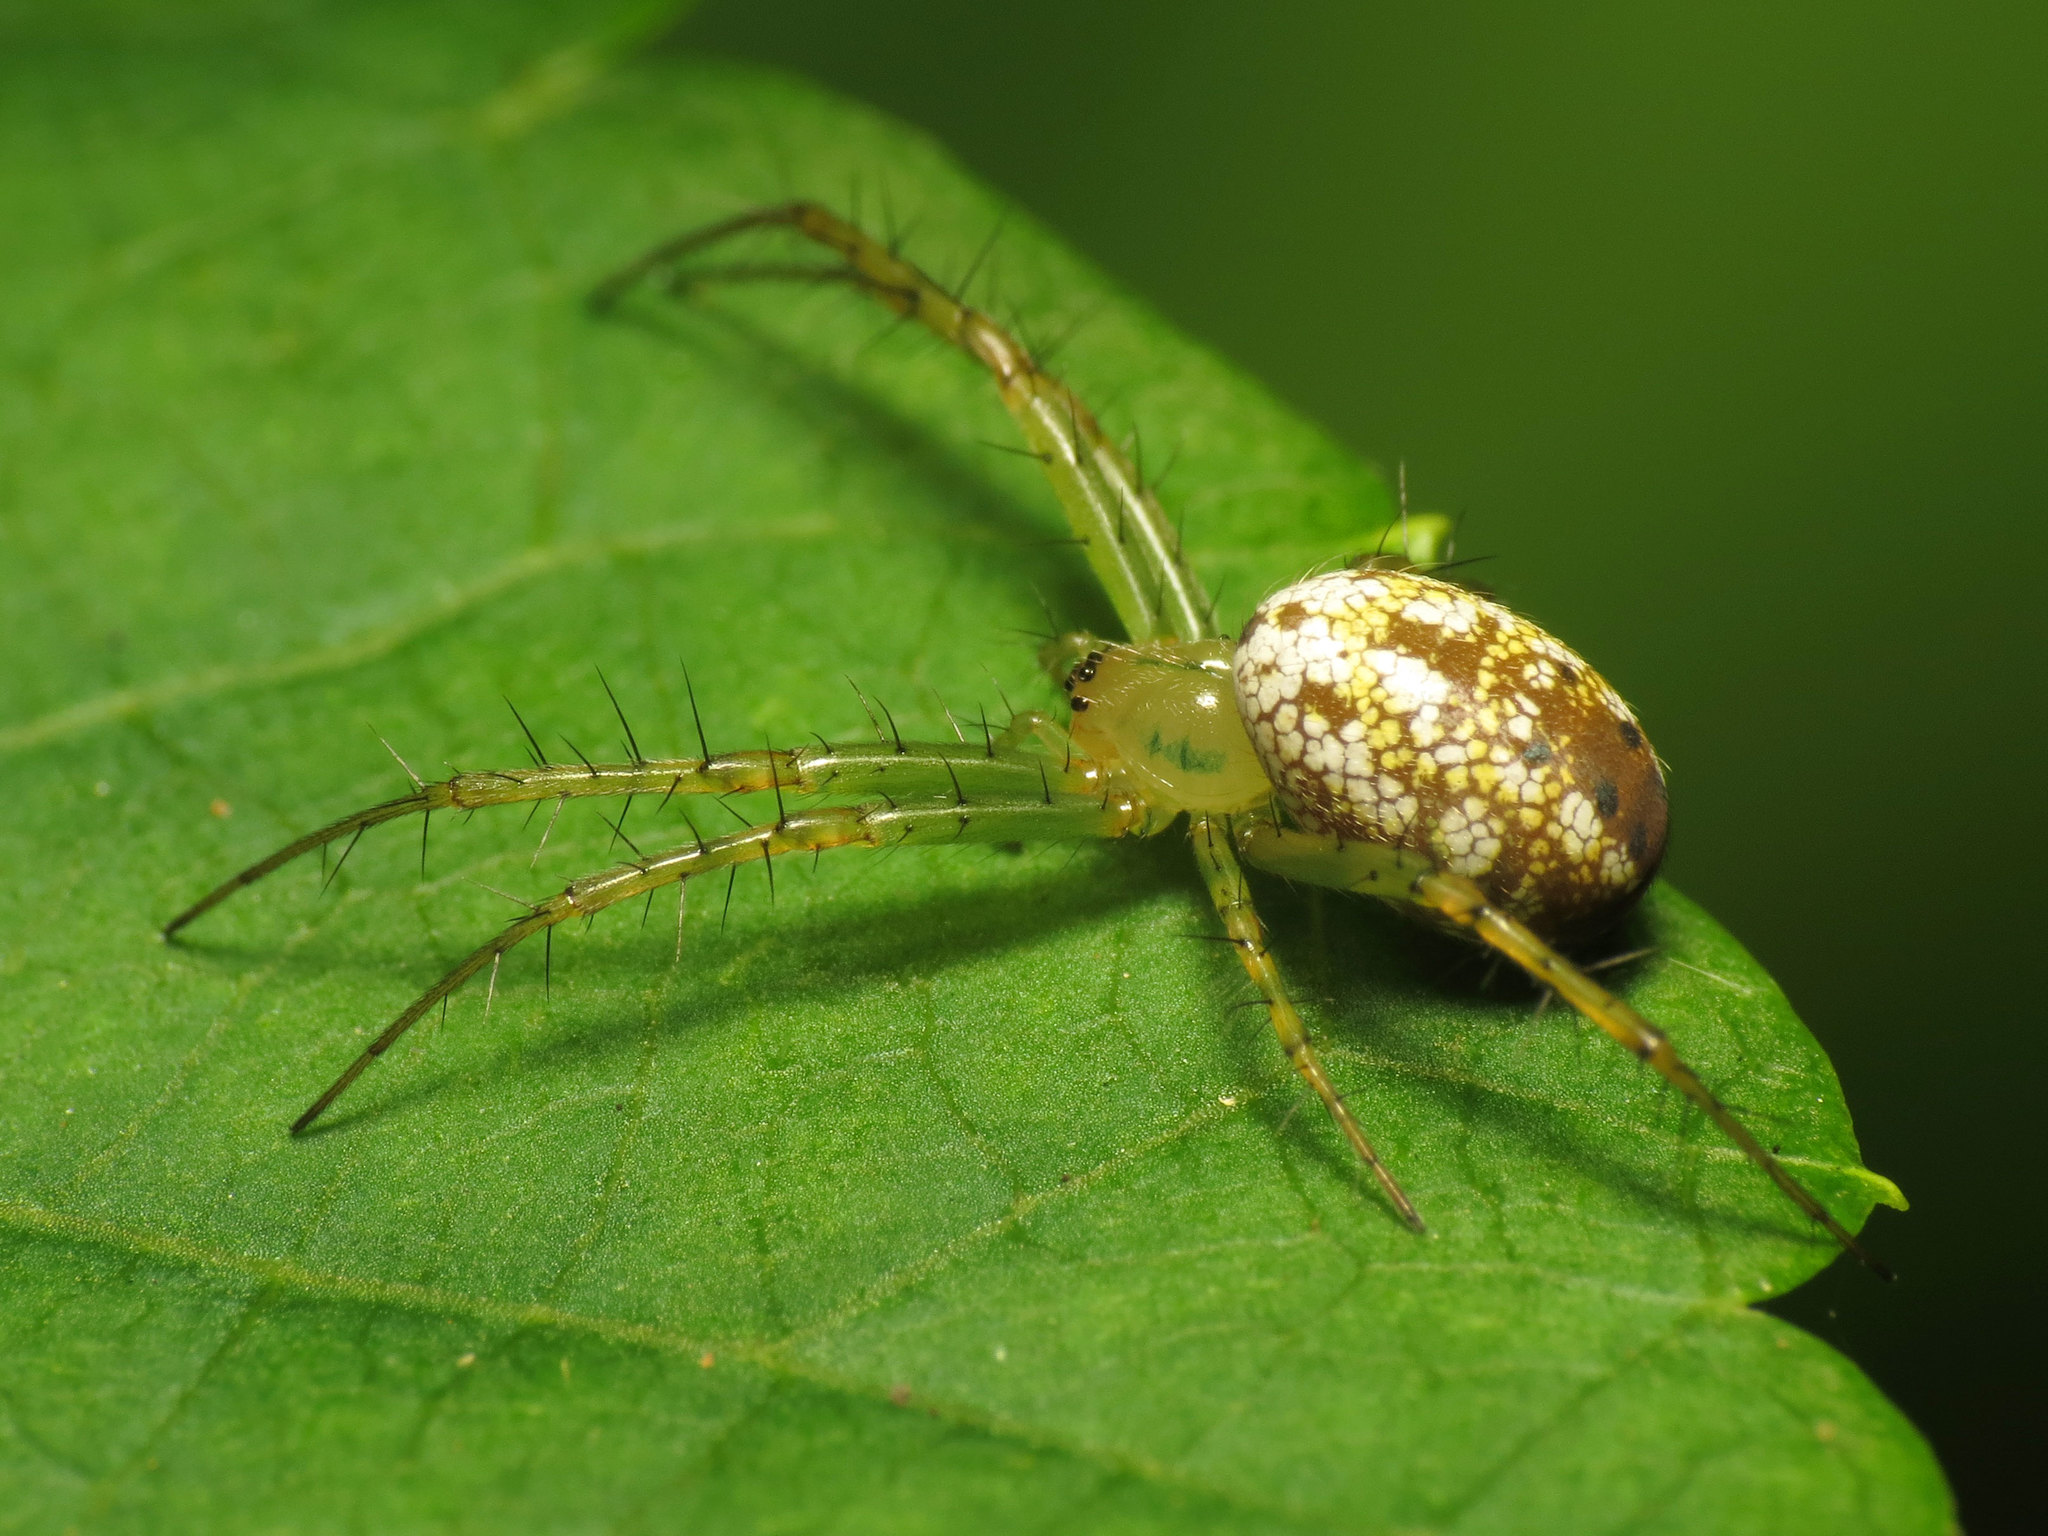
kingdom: Animalia
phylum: Arthropoda
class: Arachnida
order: Araneae
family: Araneidae
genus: Mangora
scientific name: Mangora maculata
